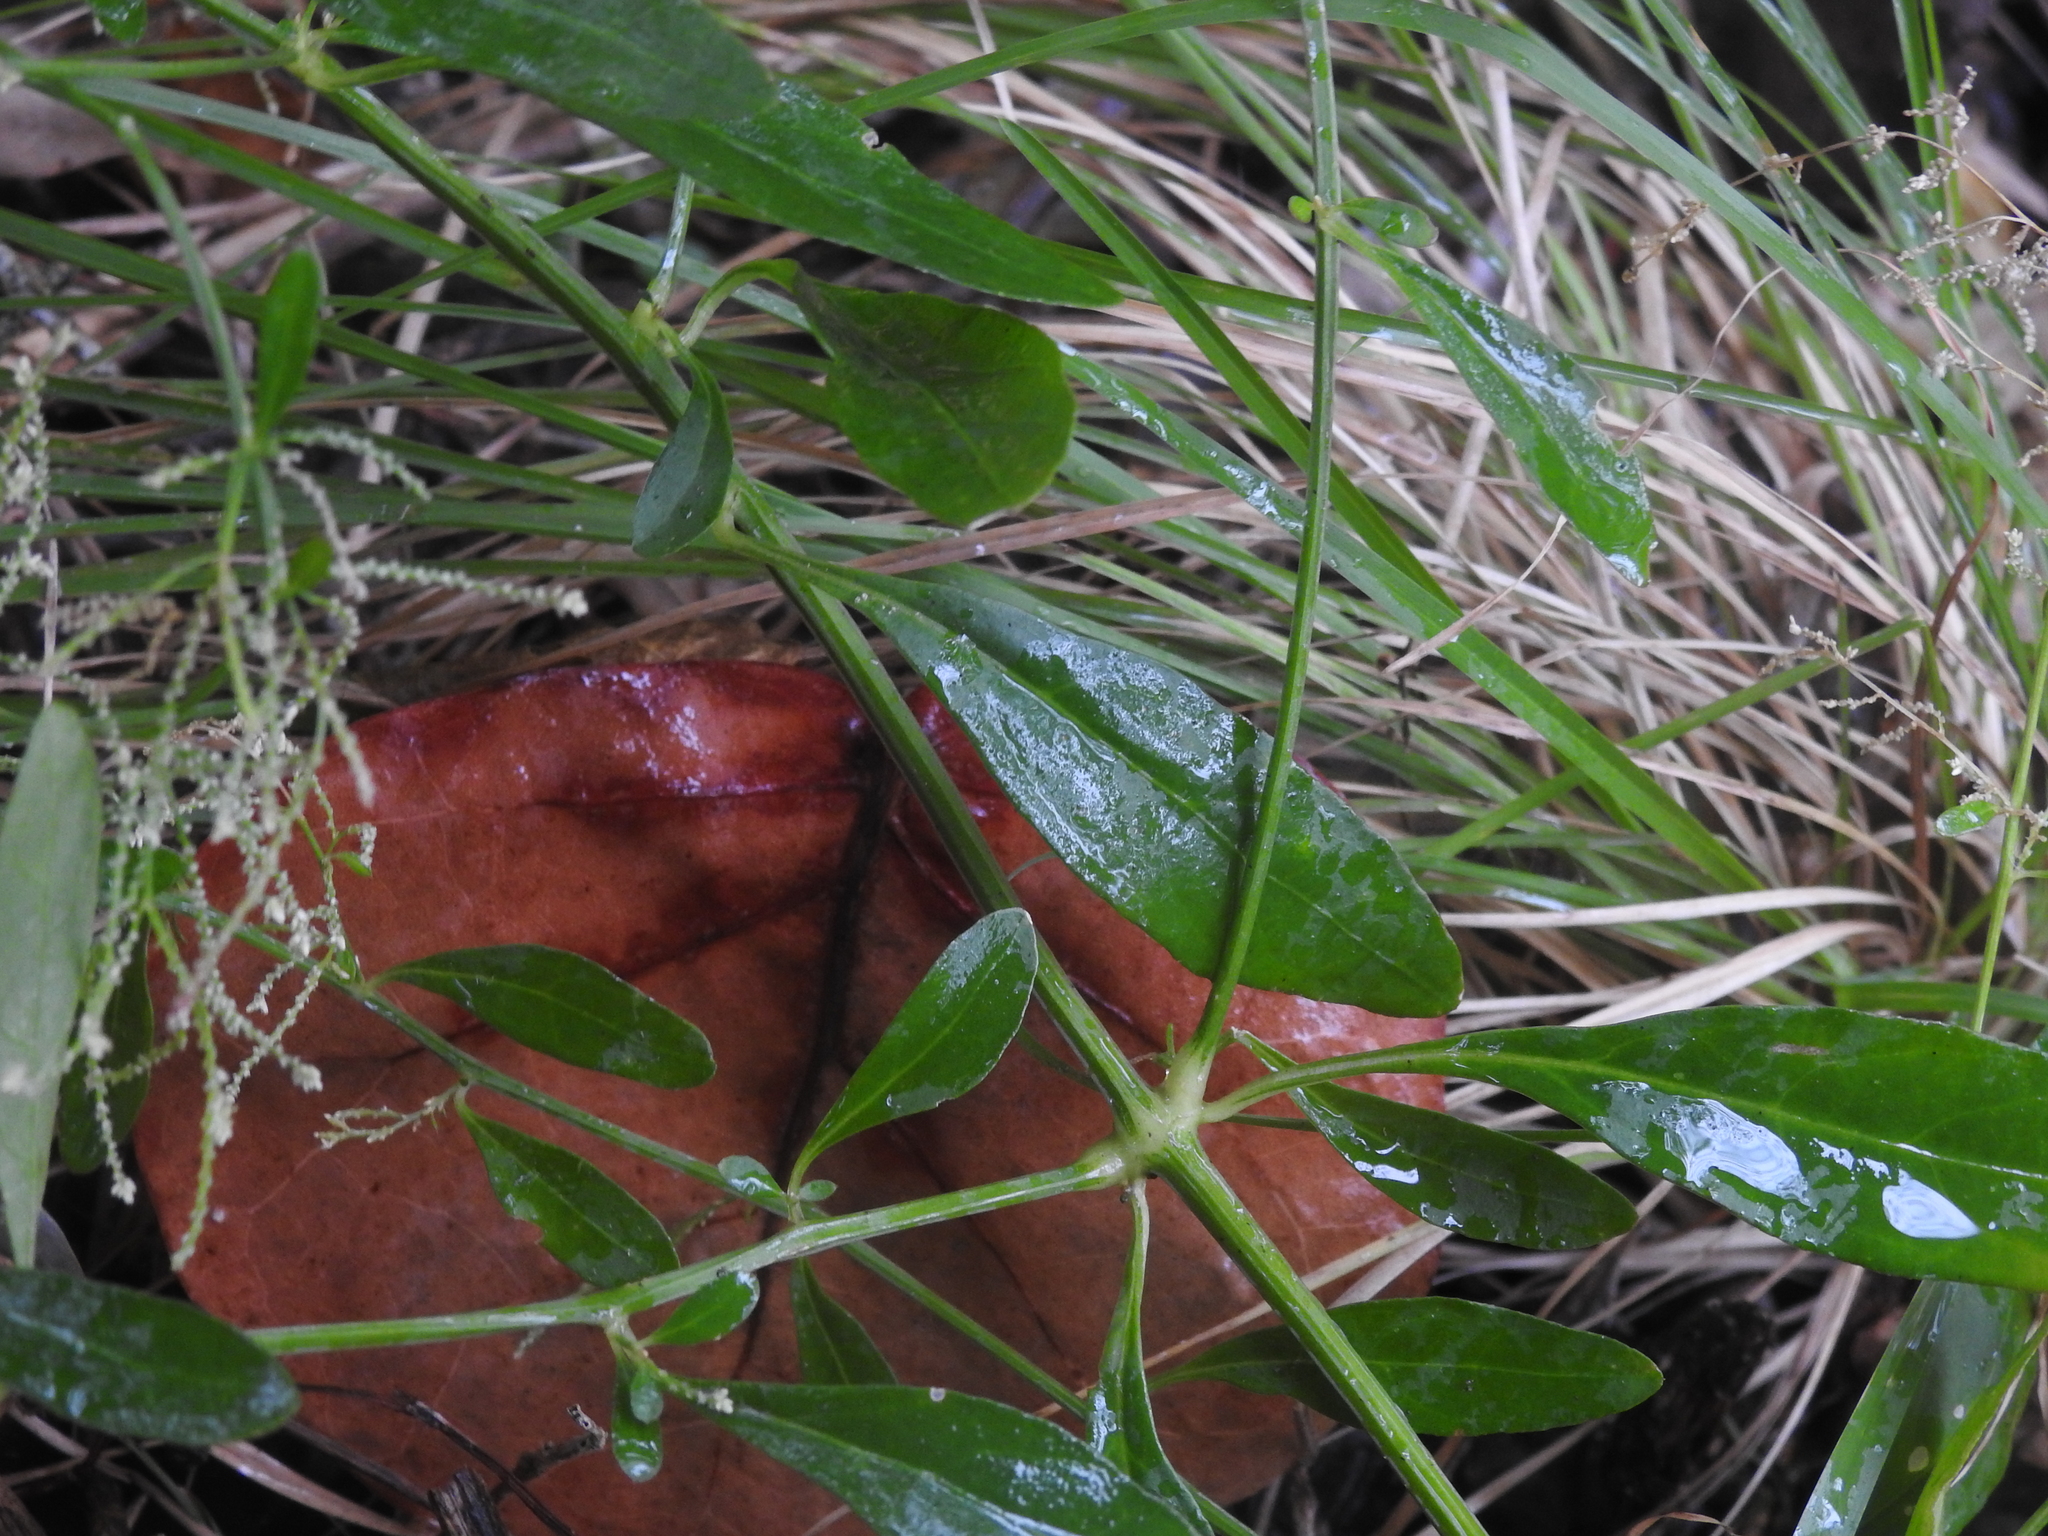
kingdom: Plantae
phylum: Tracheophyta
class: Magnoliopsida
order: Caryophyllales
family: Amaranthaceae
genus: Alternanthera
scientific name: Alternanthera flavescens
